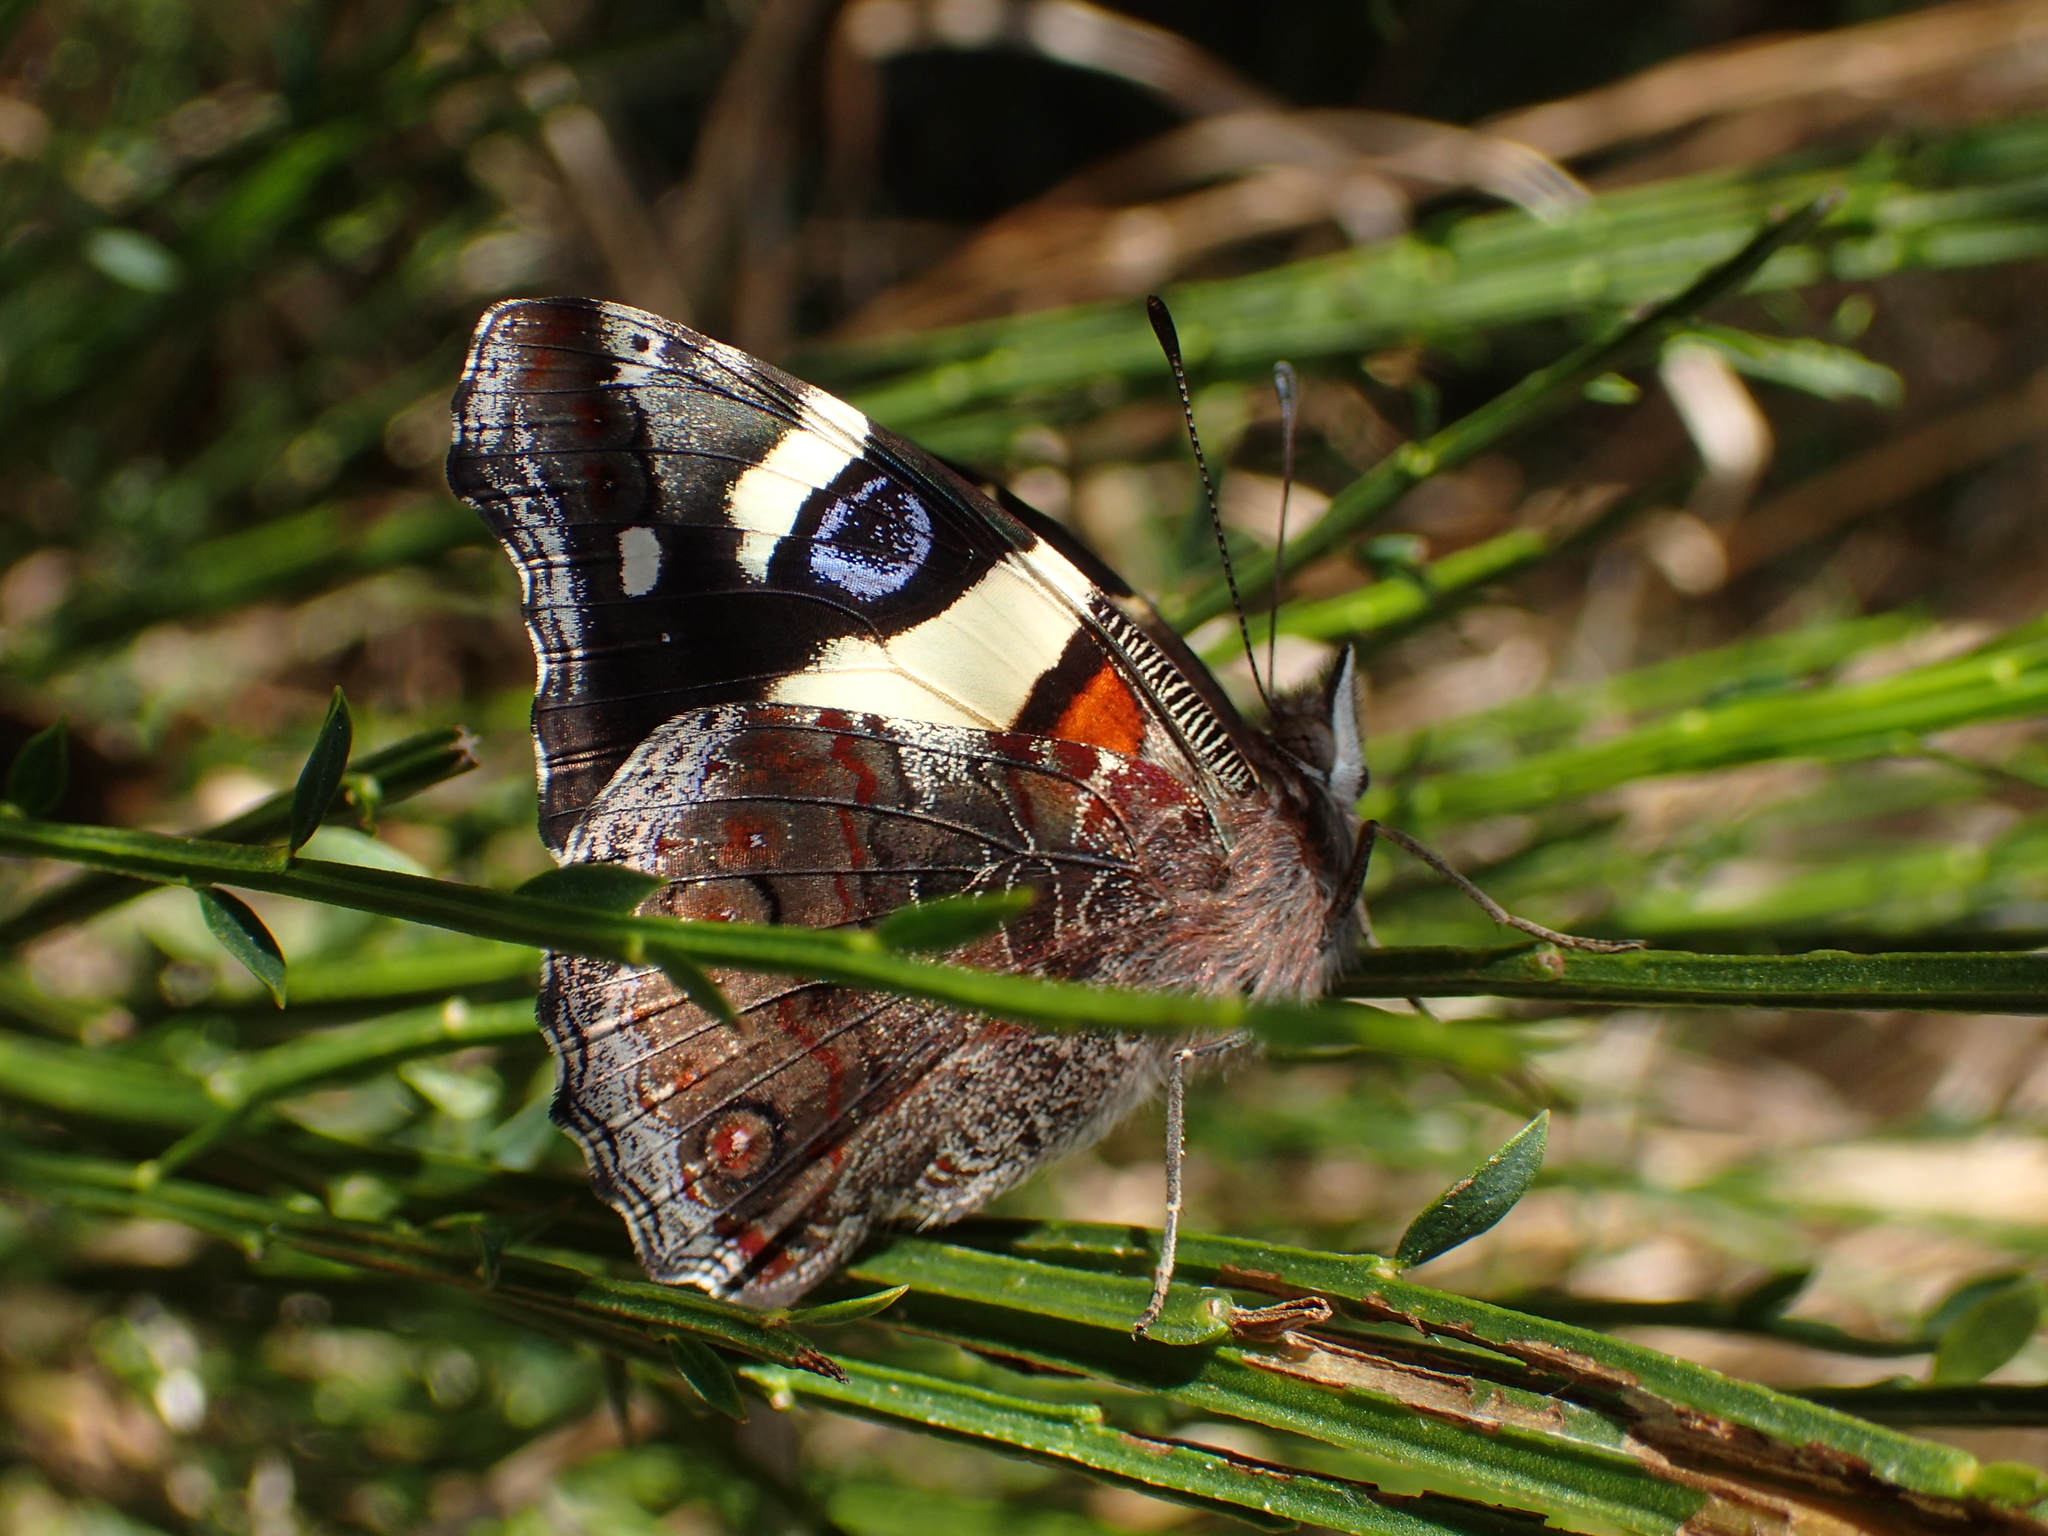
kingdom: Animalia
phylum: Arthropoda
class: Insecta
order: Lepidoptera
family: Nymphalidae
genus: Vanessa
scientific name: Vanessa itea
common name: Yellow admiral
